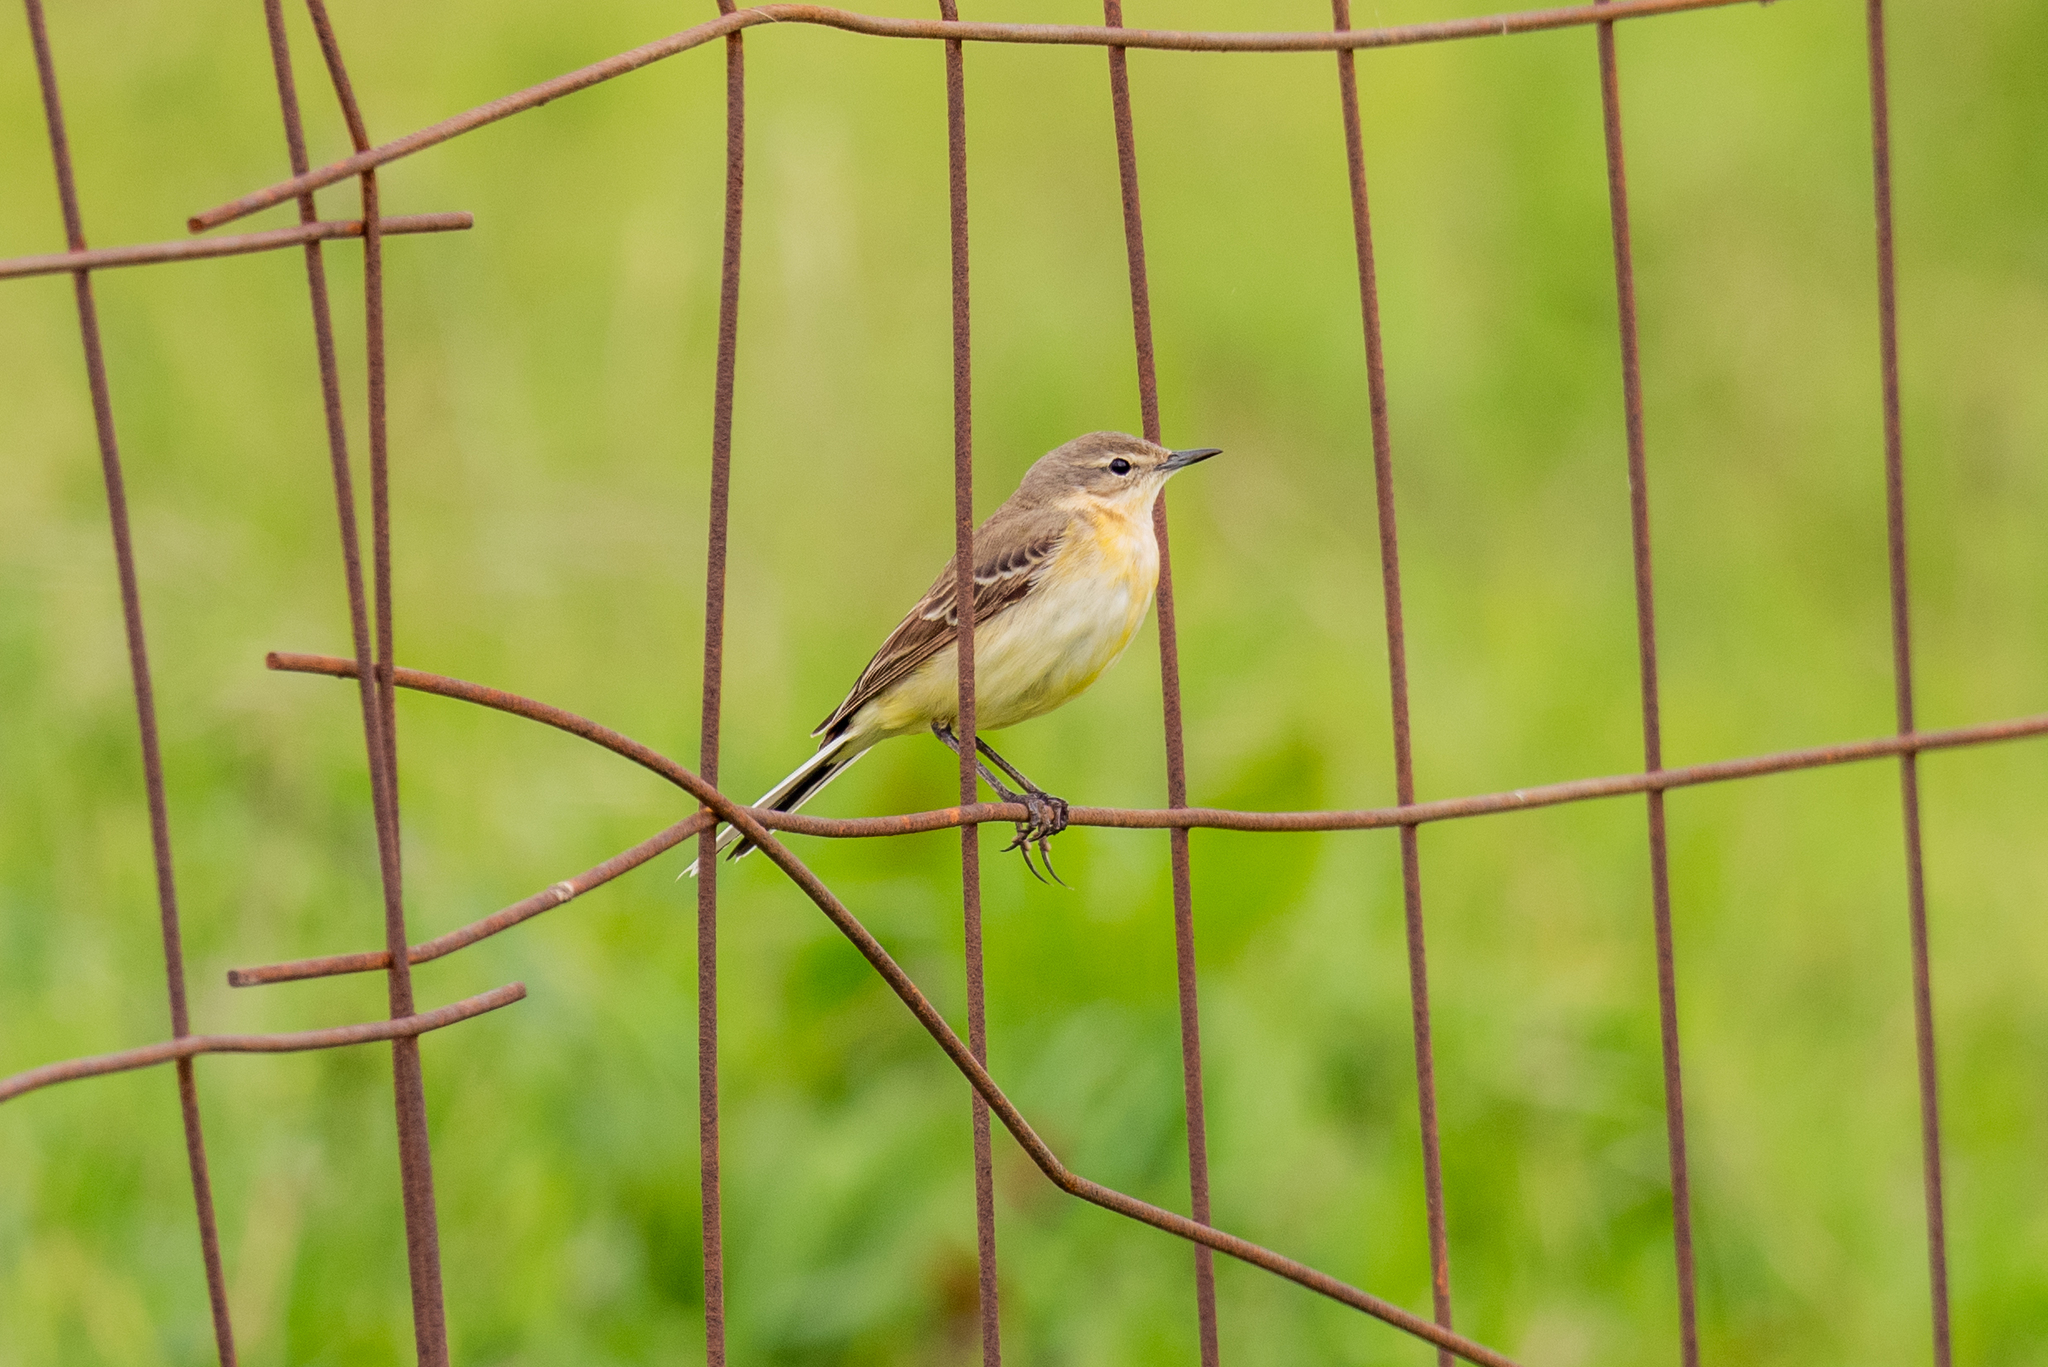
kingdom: Animalia
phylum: Chordata
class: Aves
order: Passeriformes
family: Motacillidae
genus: Motacilla
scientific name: Motacilla flava
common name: Western yellow wagtail
